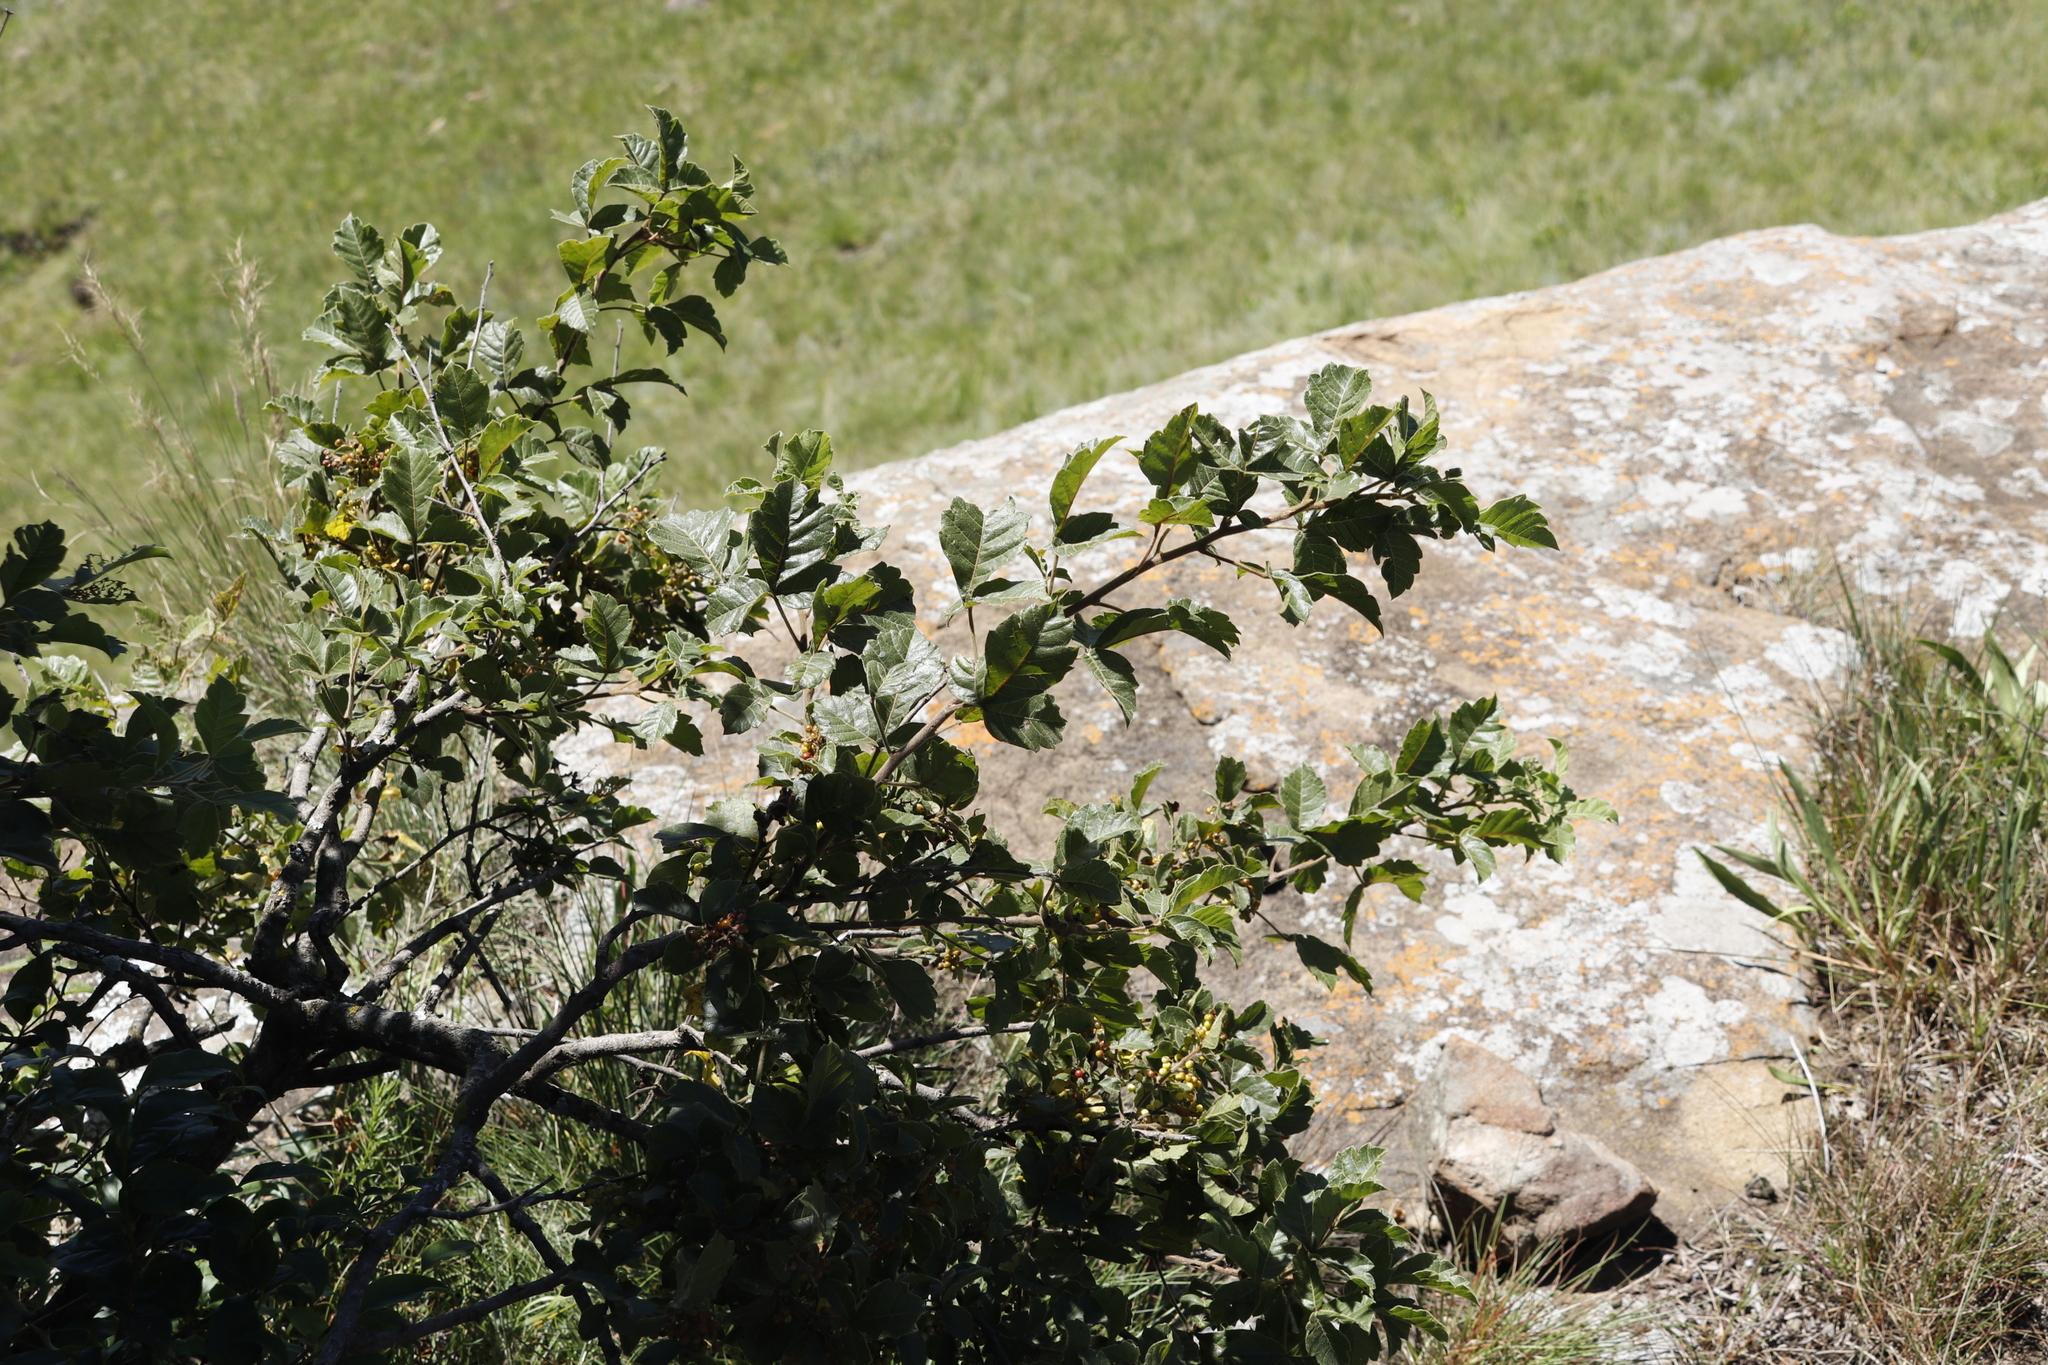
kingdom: Plantae
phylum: Tracheophyta
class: Magnoliopsida
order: Sapindales
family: Anacardiaceae
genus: Searsia
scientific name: Searsia dentata
